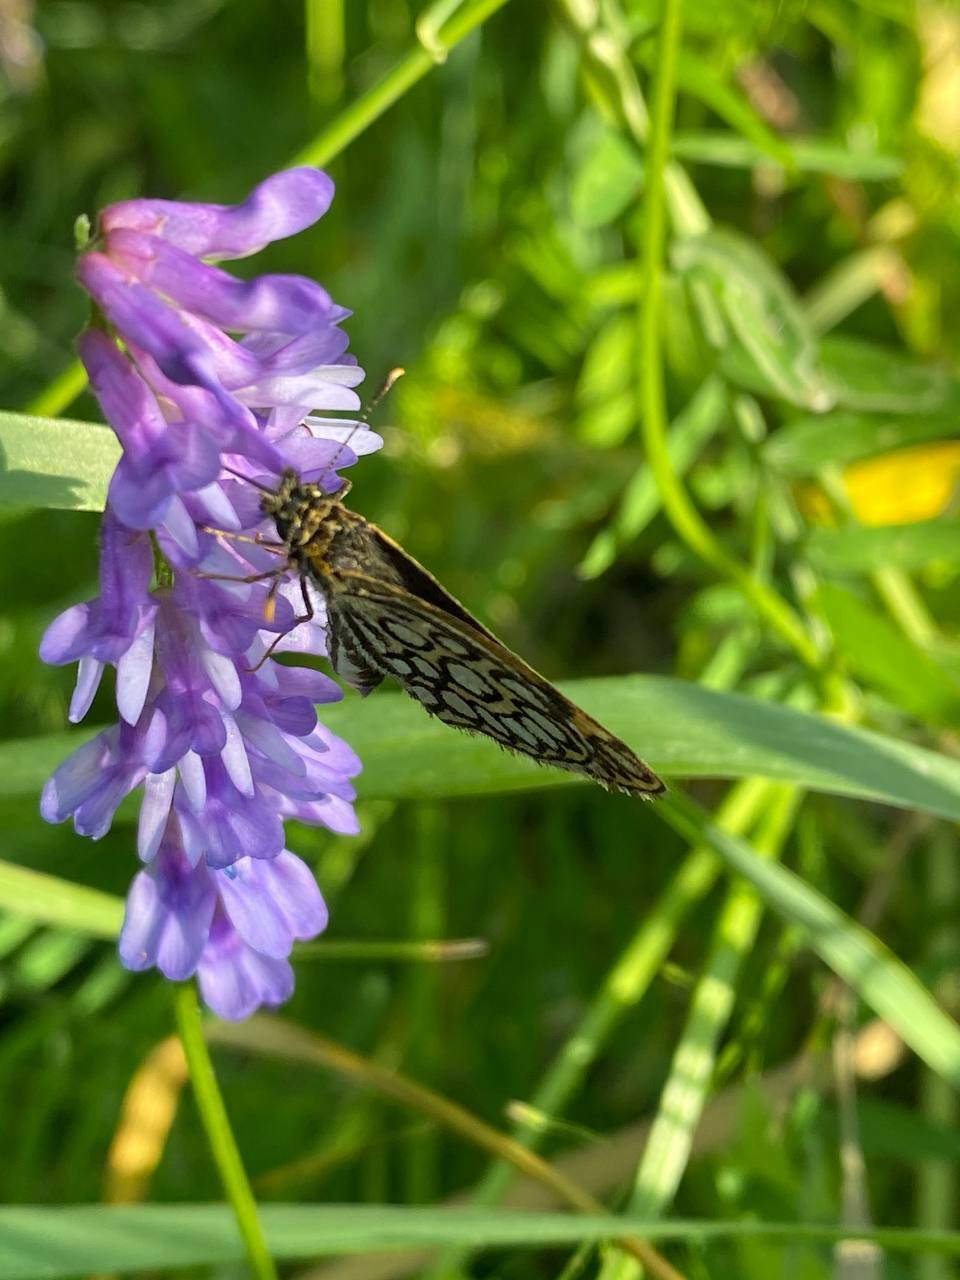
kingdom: Animalia
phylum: Arthropoda
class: Insecta
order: Lepidoptera
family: Hesperiidae
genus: Heteropterus
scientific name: Heteropterus morpheus
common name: Large chequered skipper
